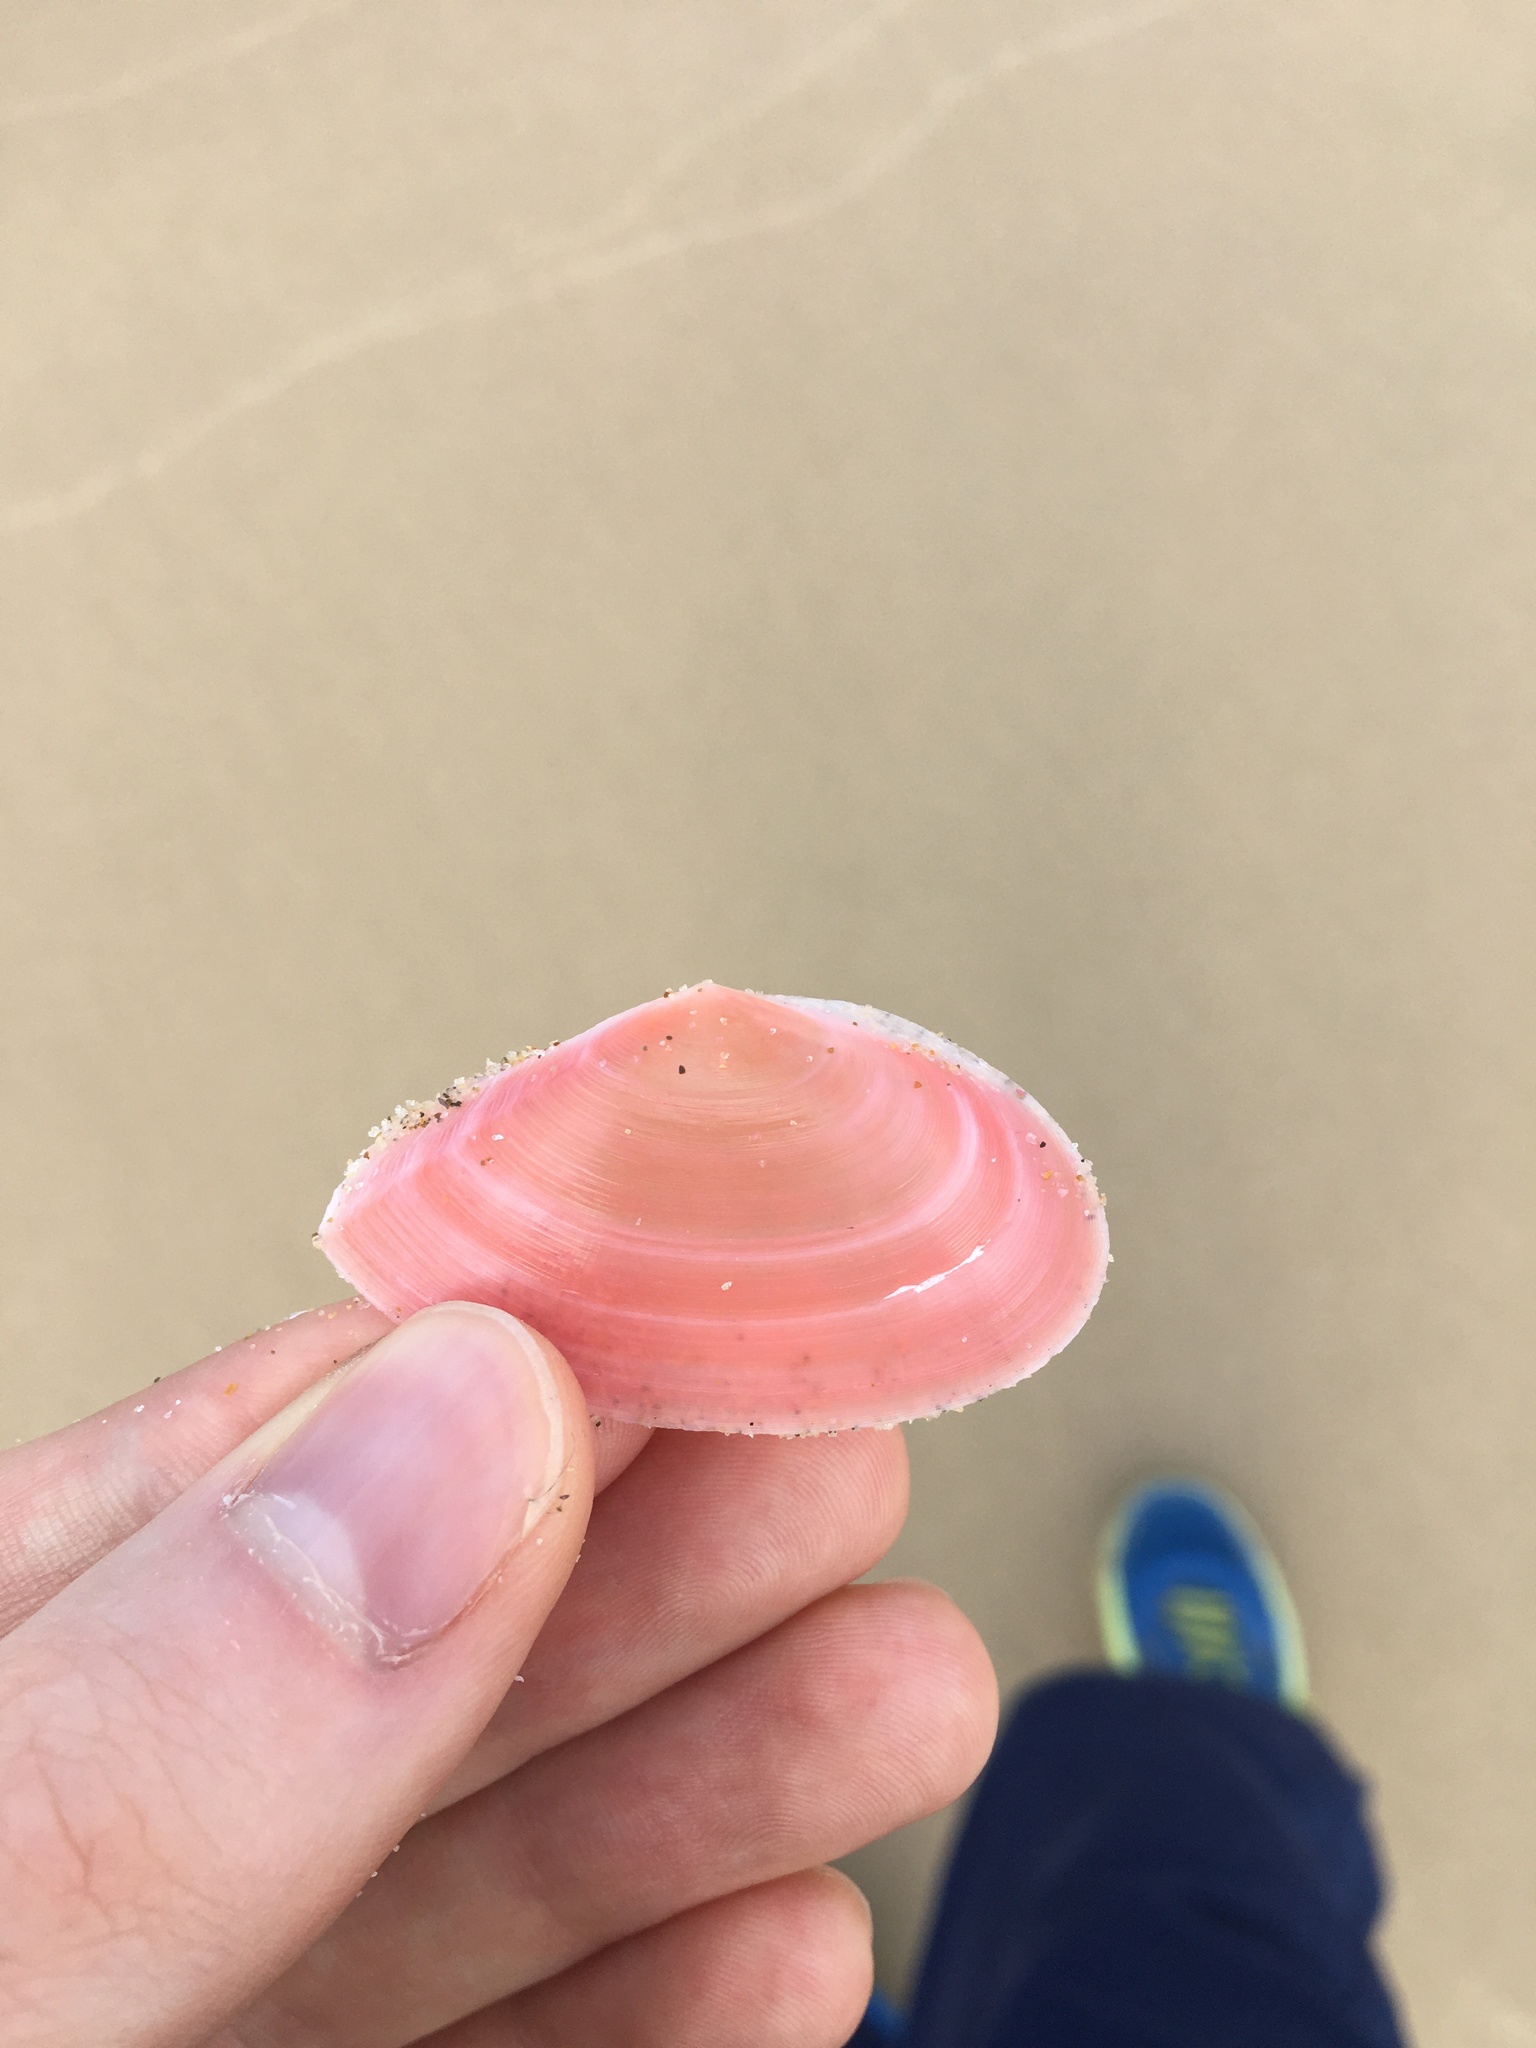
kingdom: Animalia
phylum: Mollusca
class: Bivalvia
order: Cardiida
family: Tellinidae
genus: Tellinota
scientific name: Tellinota albinella
